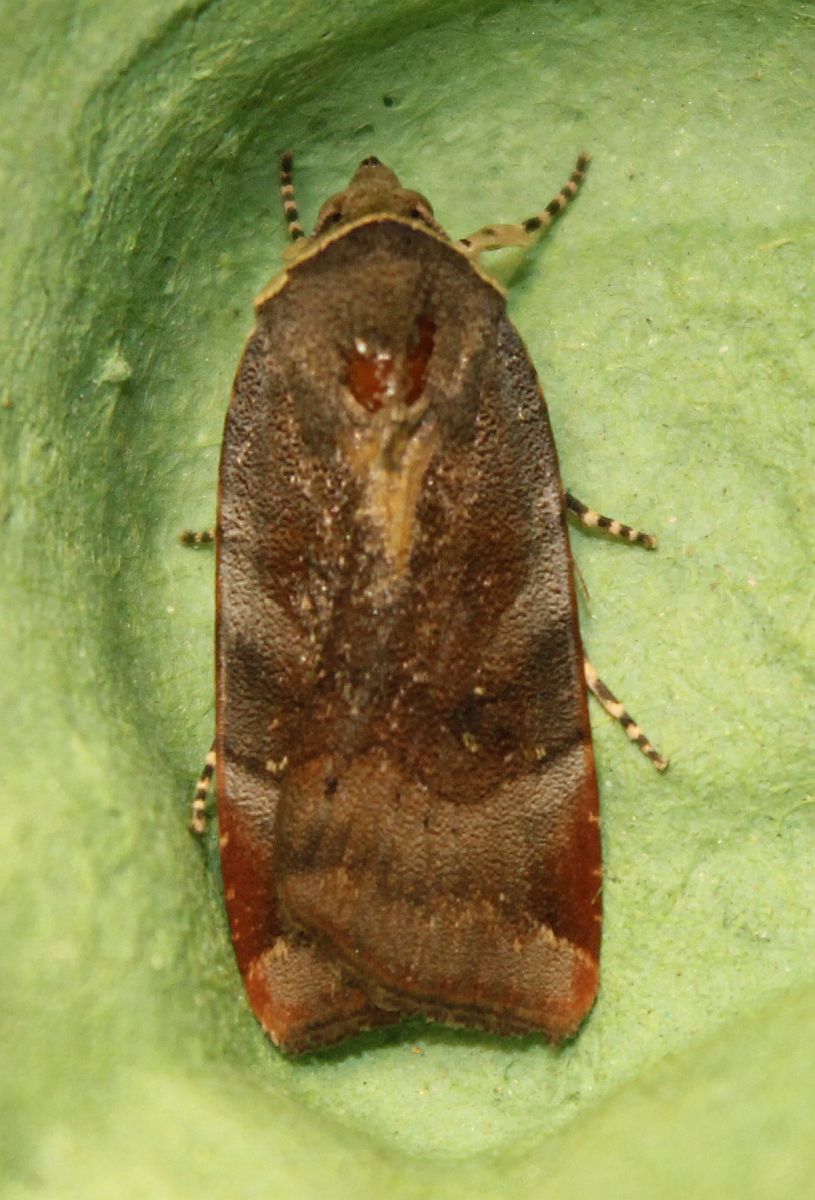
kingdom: Animalia
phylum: Arthropoda
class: Insecta
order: Lepidoptera
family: Noctuidae
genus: Noctua
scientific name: Noctua janthe
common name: Lesser broad-bordered yellow underwing
